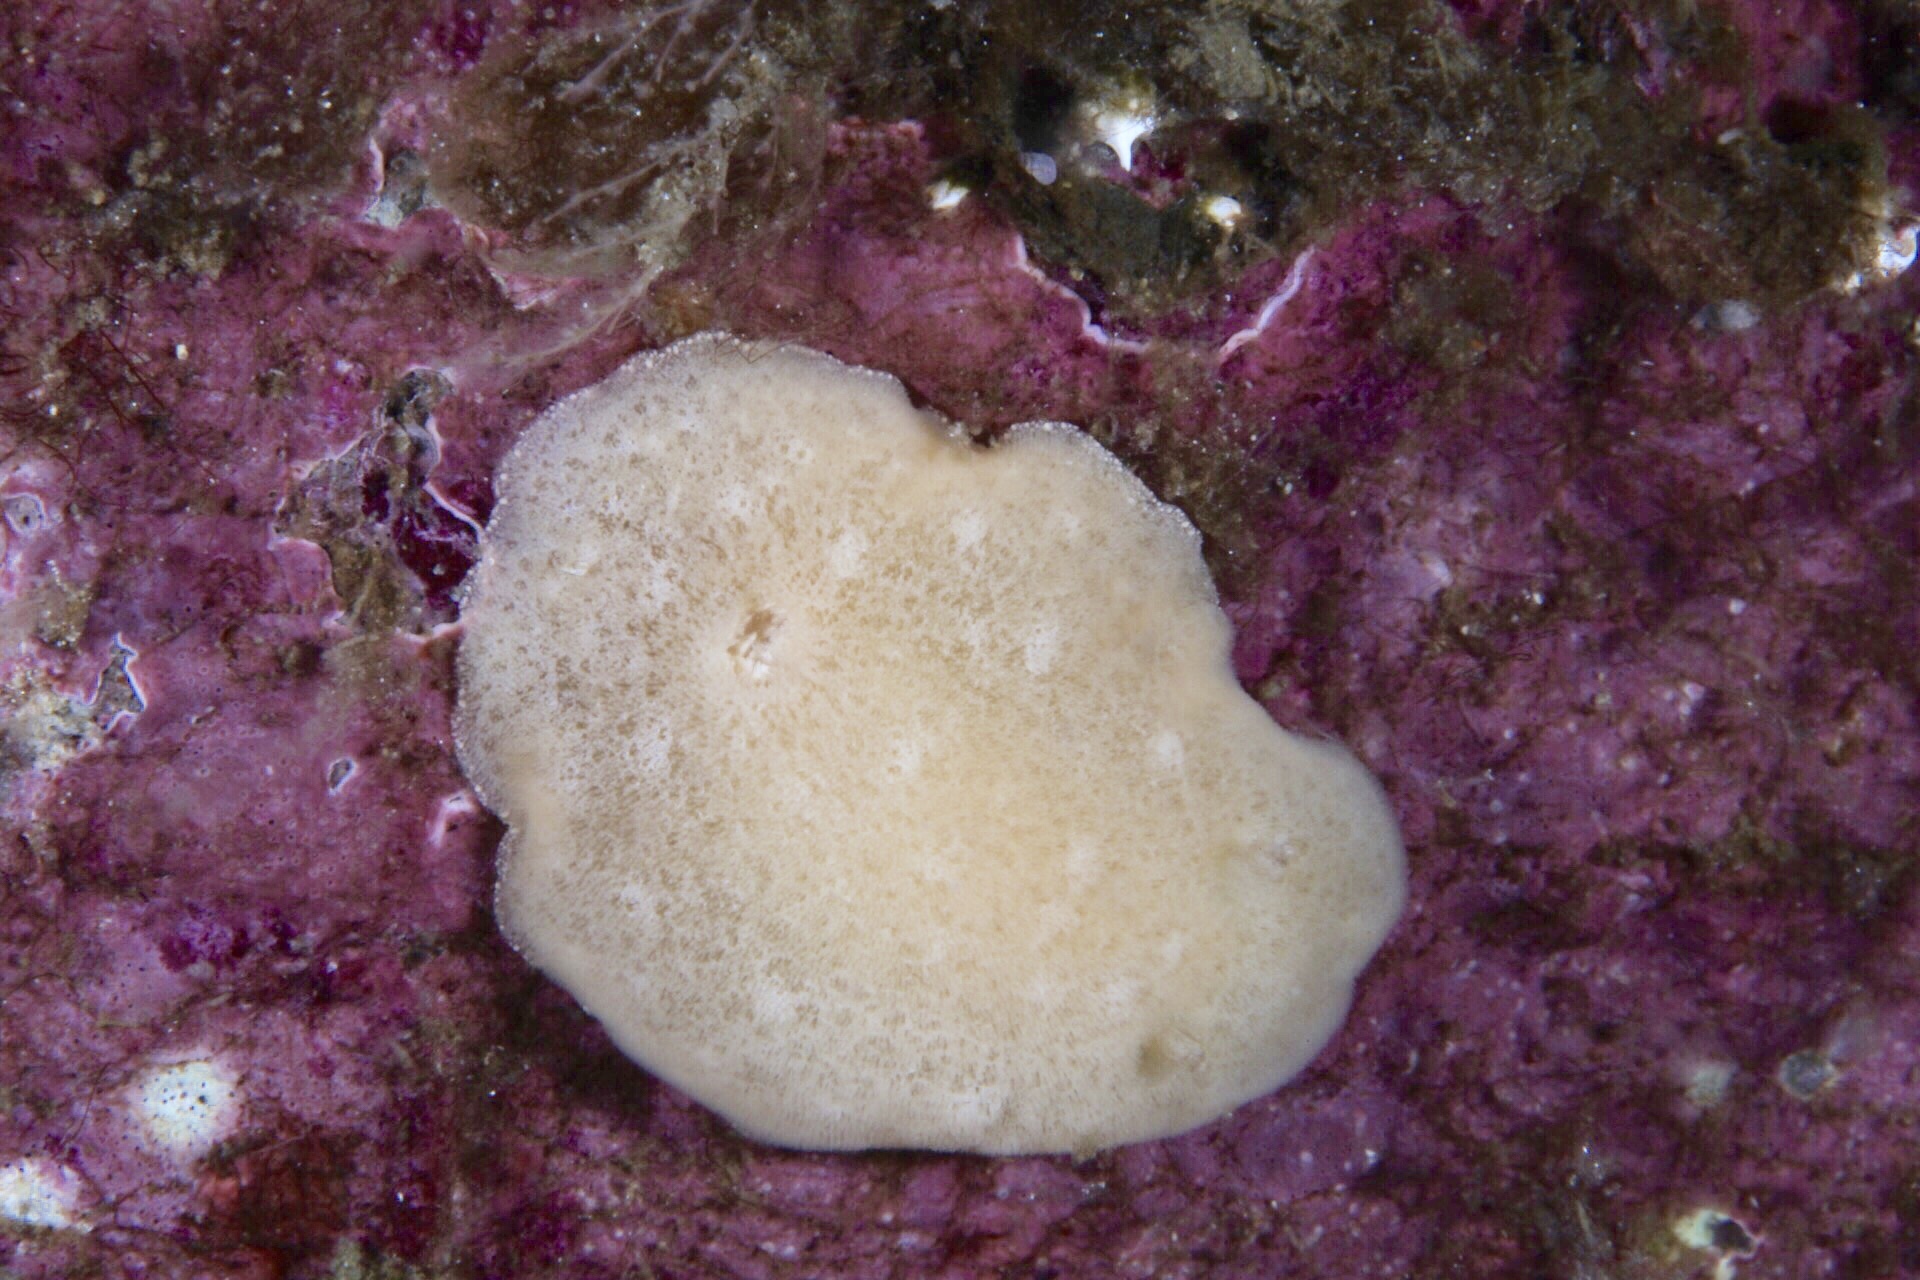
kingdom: Animalia
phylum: Mollusca
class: Gastropoda
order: Nudibranchia
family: Discodorididae
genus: Jorunna
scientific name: Jorunna tomentosa
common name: Grey sea slug
